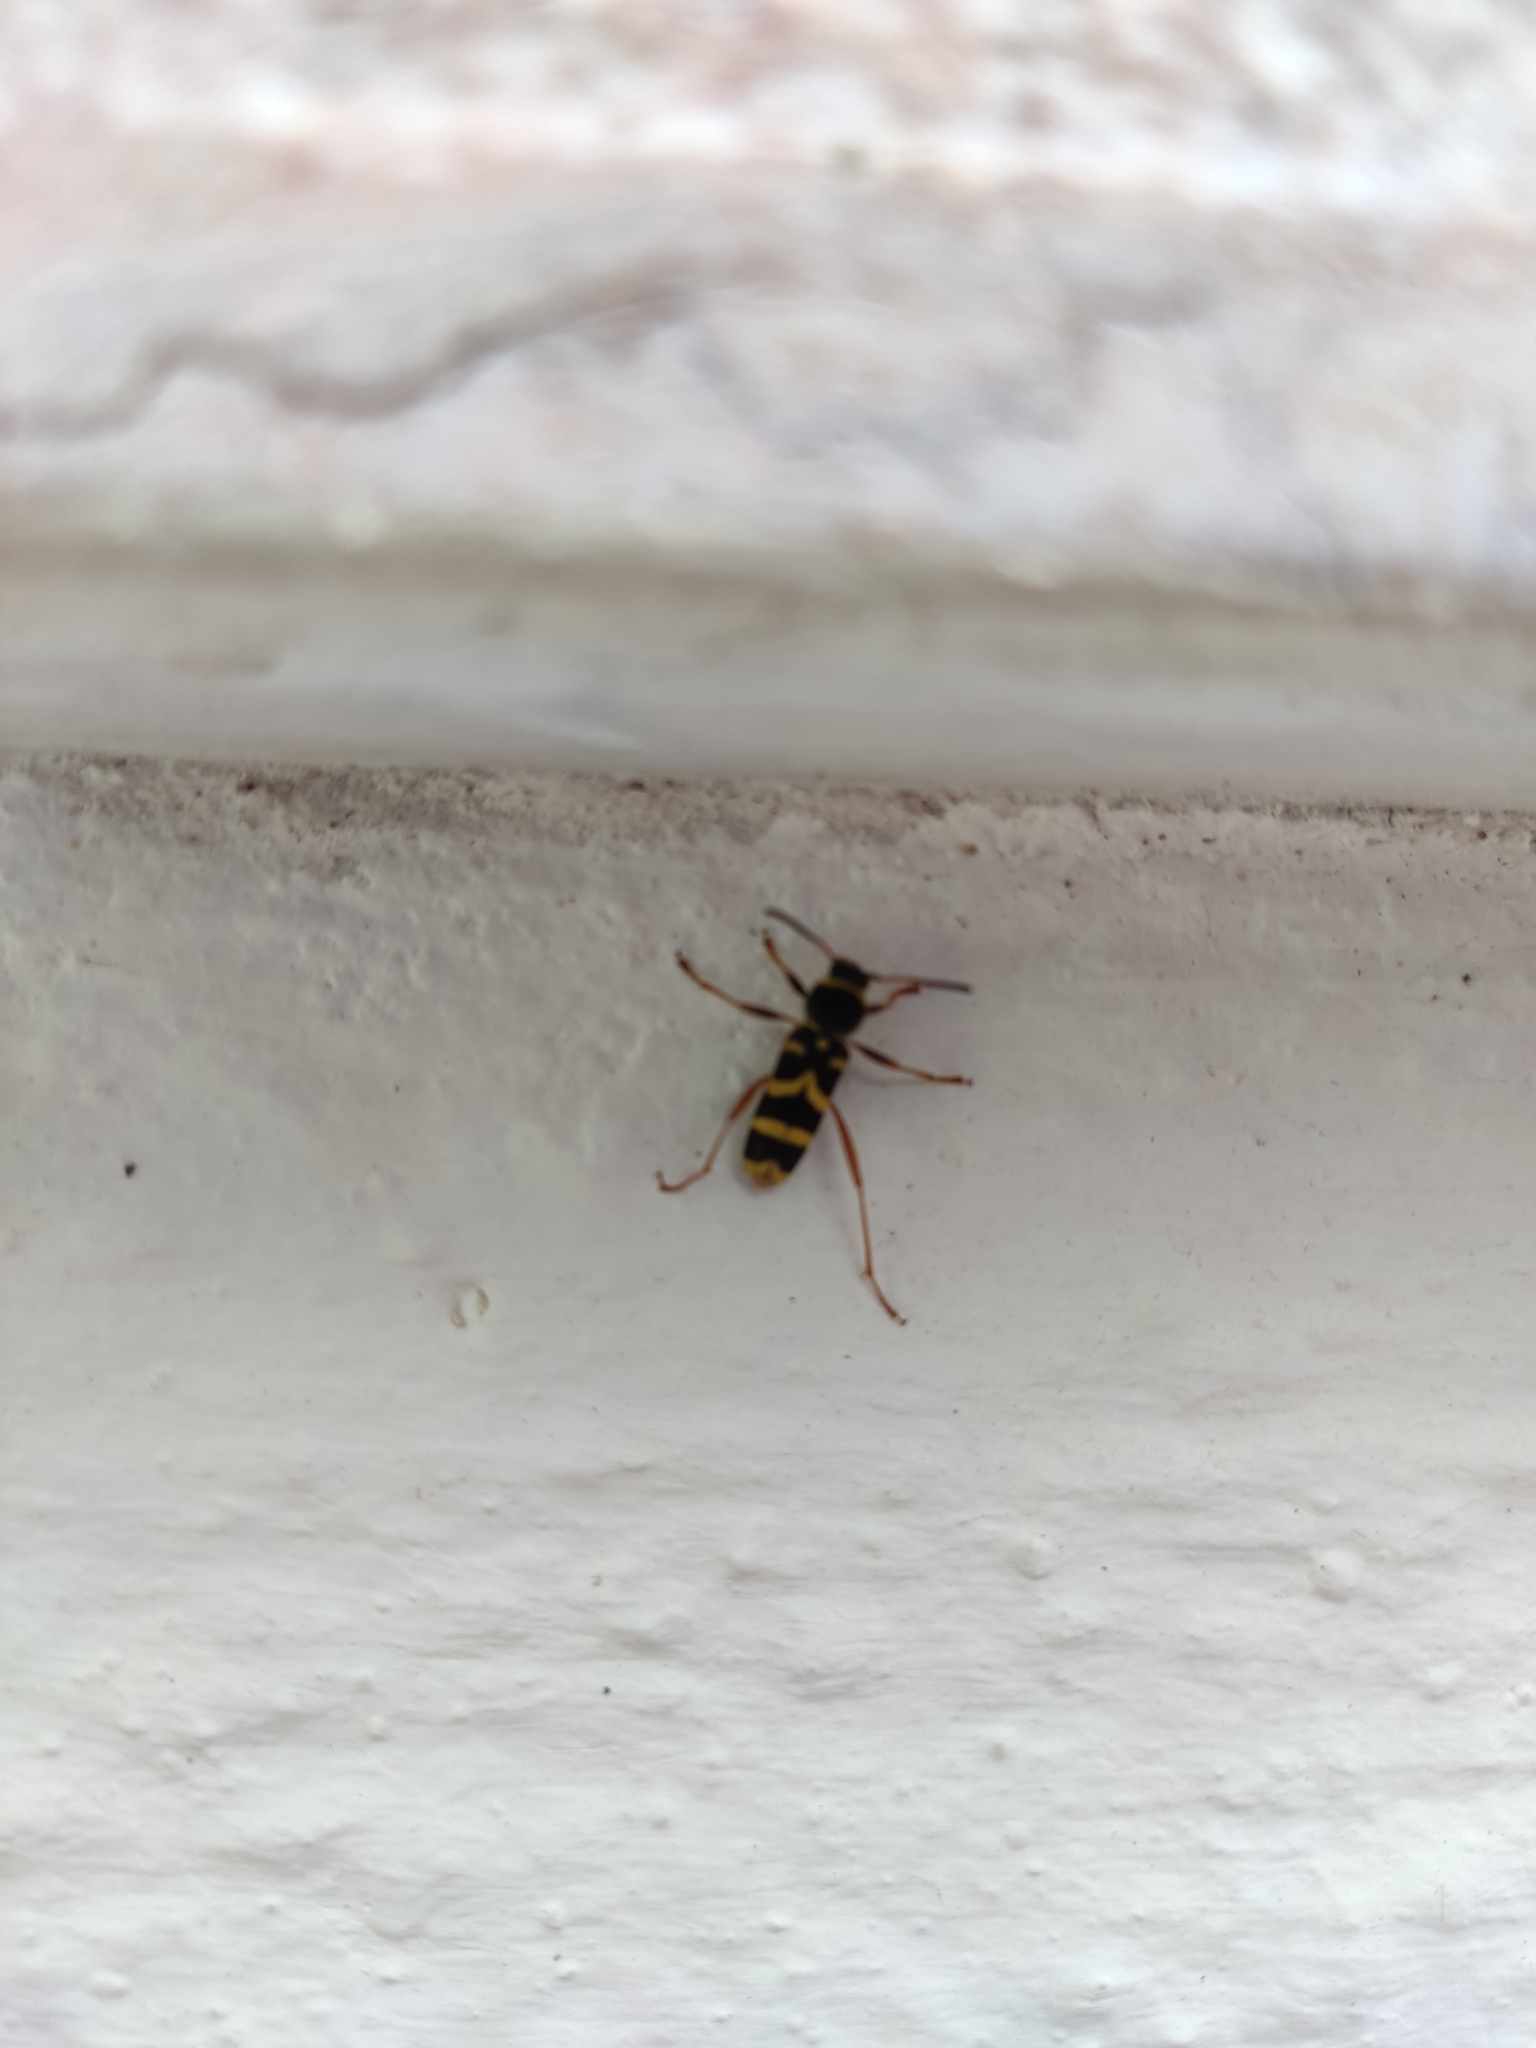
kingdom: Animalia
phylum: Arthropoda
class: Insecta
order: Coleoptera
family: Cerambycidae
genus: Clytus
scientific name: Clytus arietis
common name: Wasp beetle
